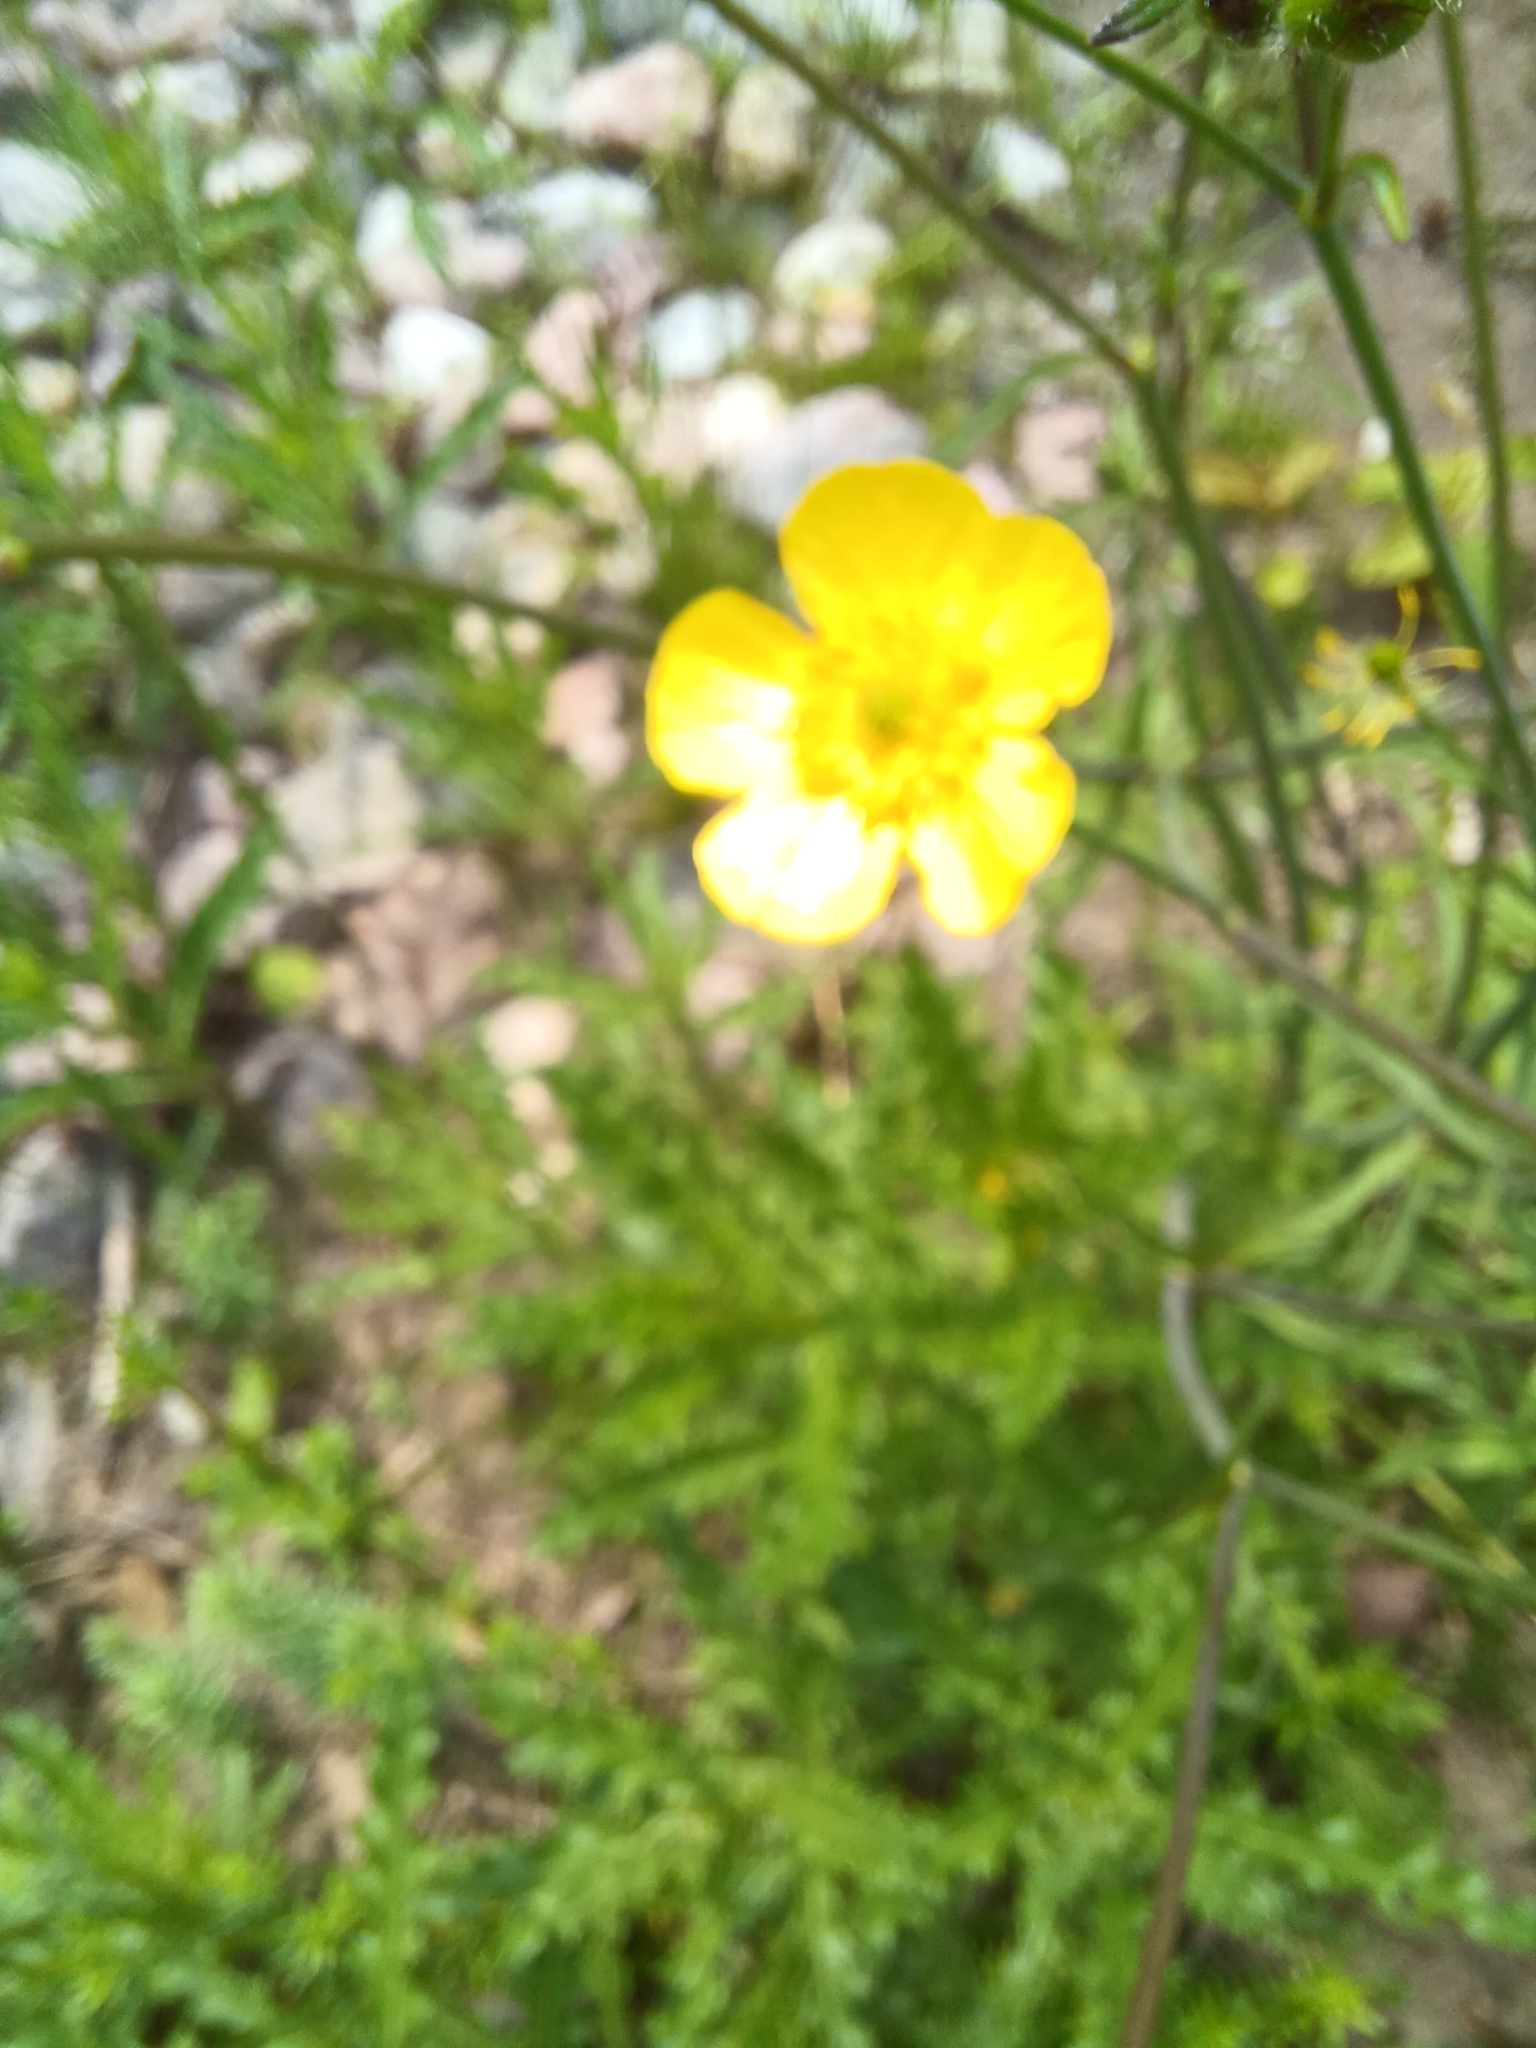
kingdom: Plantae
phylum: Tracheophyta
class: Magnoliopsida
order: Ranunculales
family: Ranunculaceae
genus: Ranunculus
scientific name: Ranunculus acris
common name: Meadow buttercup
